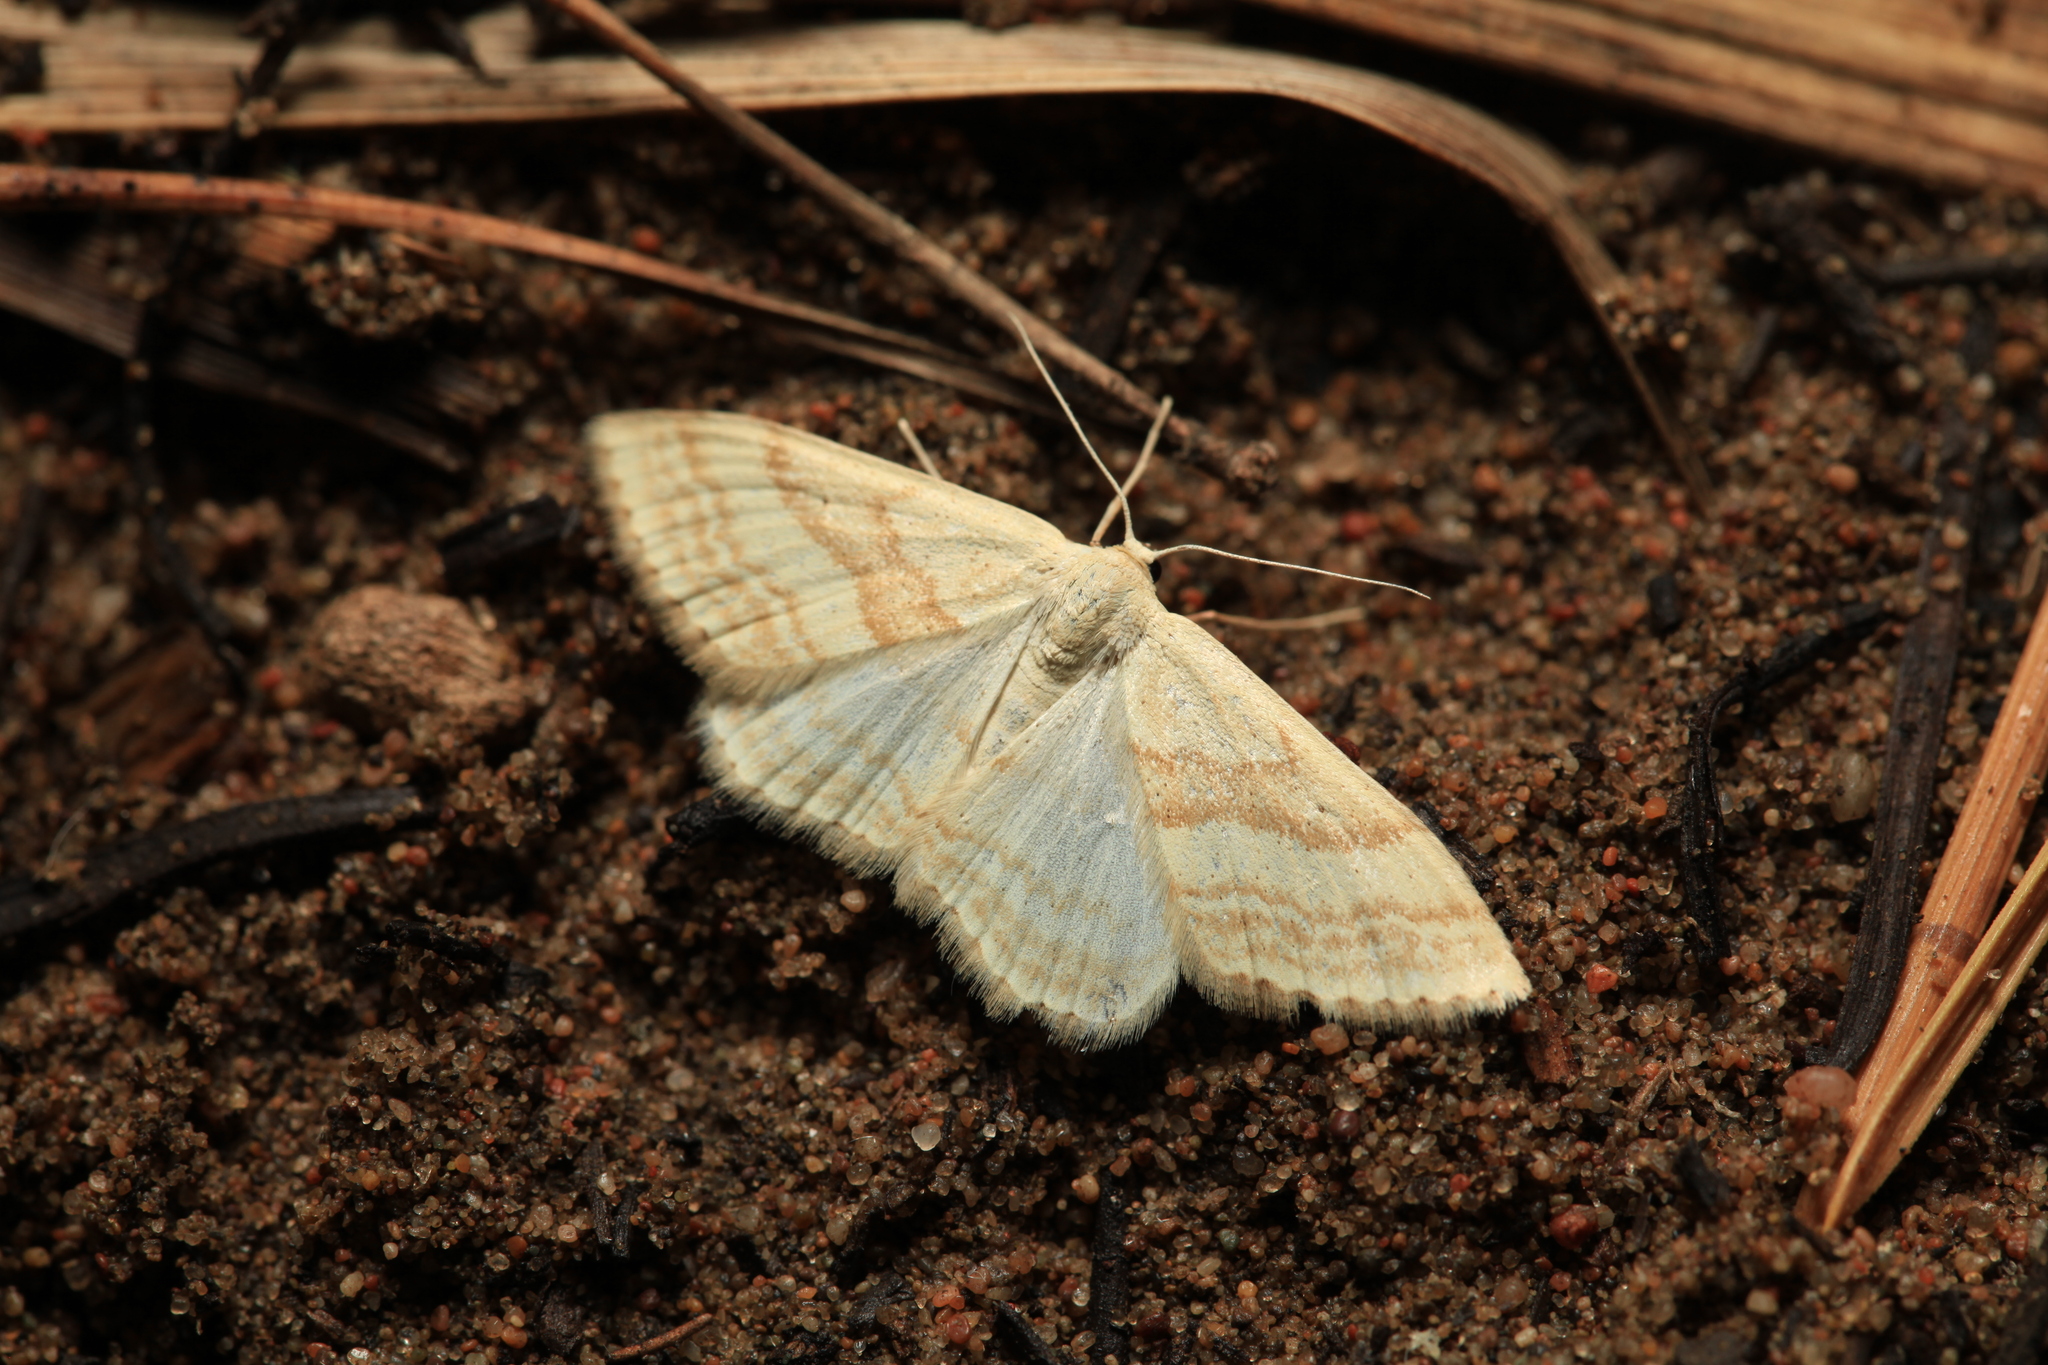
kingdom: Animalia
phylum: Arthropoda
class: Insecta
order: Lepidoptera
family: Geometridae
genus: Scopula
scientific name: Scopula albiceraria
